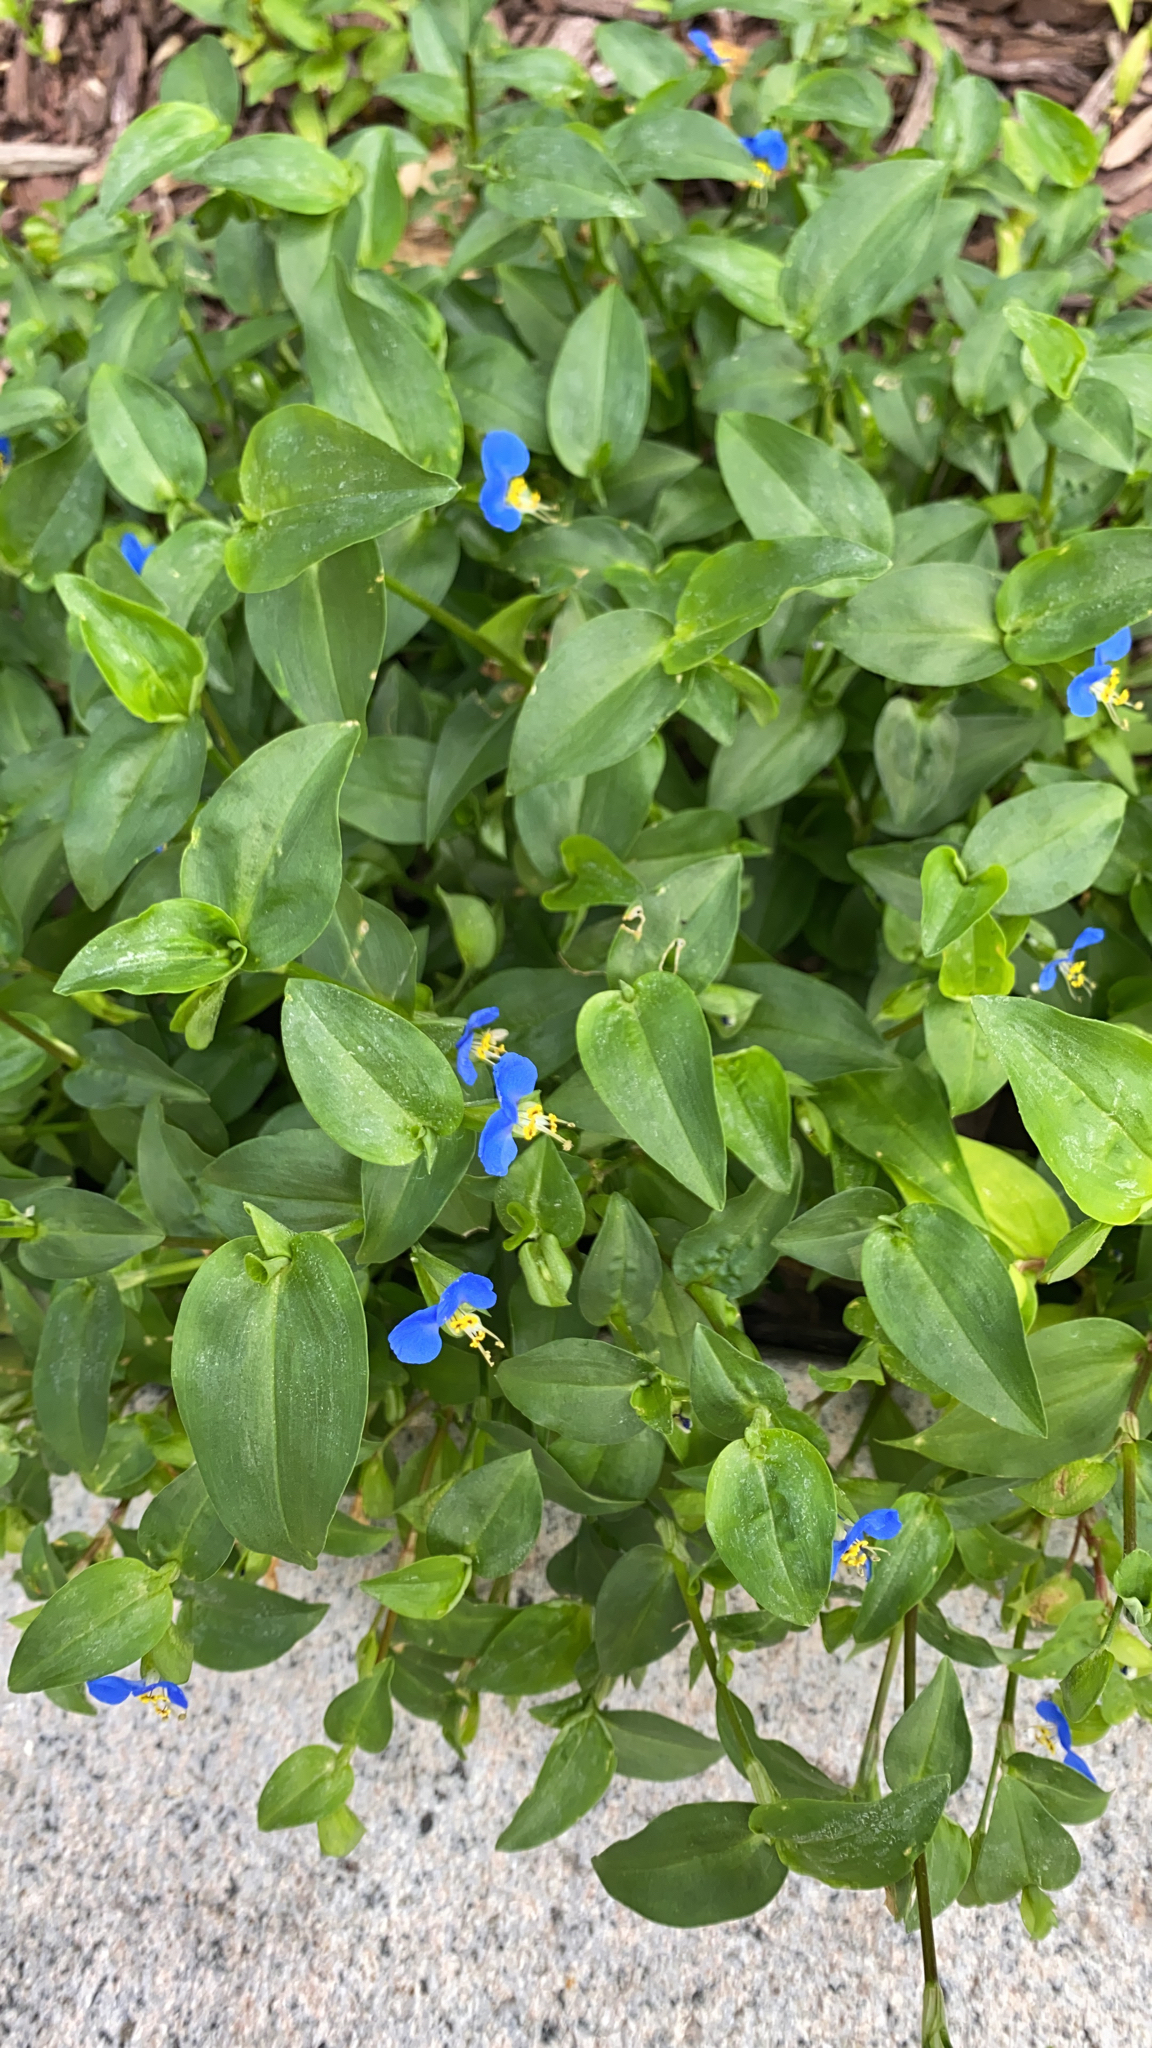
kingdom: Plantae
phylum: Tracheophyta
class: Liliopsida
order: Commelinales
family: Commelinaceae
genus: Commelina
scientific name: Commelina communis
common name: Asiatic dayflower
